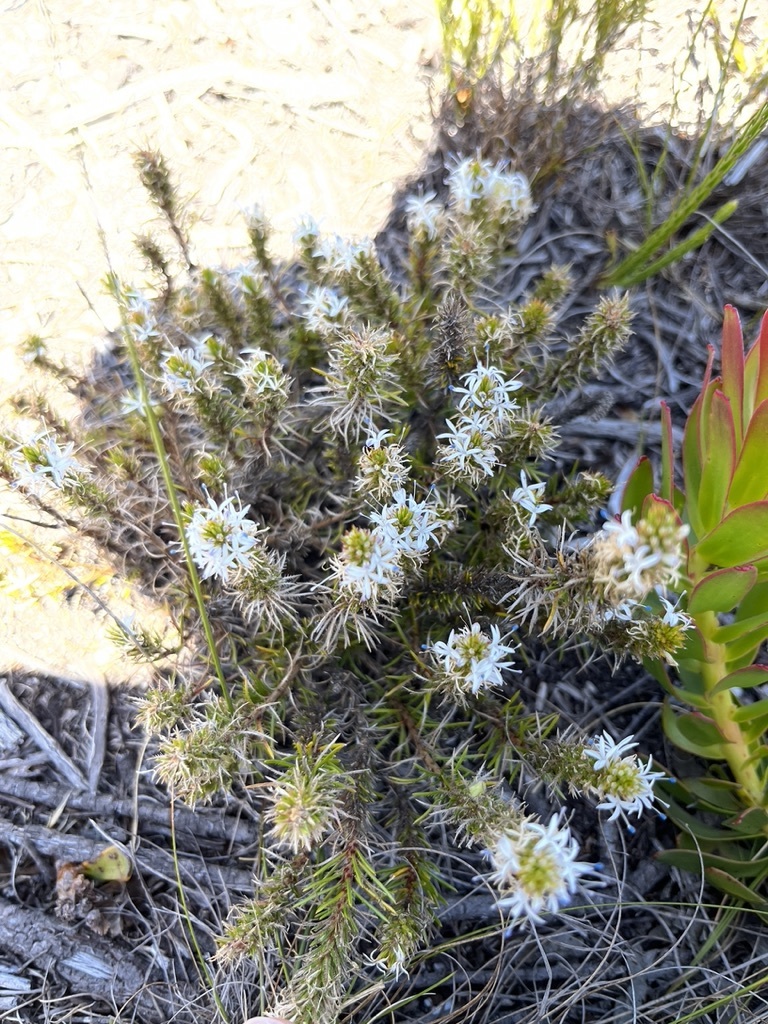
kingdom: Plantae
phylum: Tracheophyta
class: Magnoliopsida
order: Asterales
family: Campanulaceae
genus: Merciera
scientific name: Merciera leptoloba
